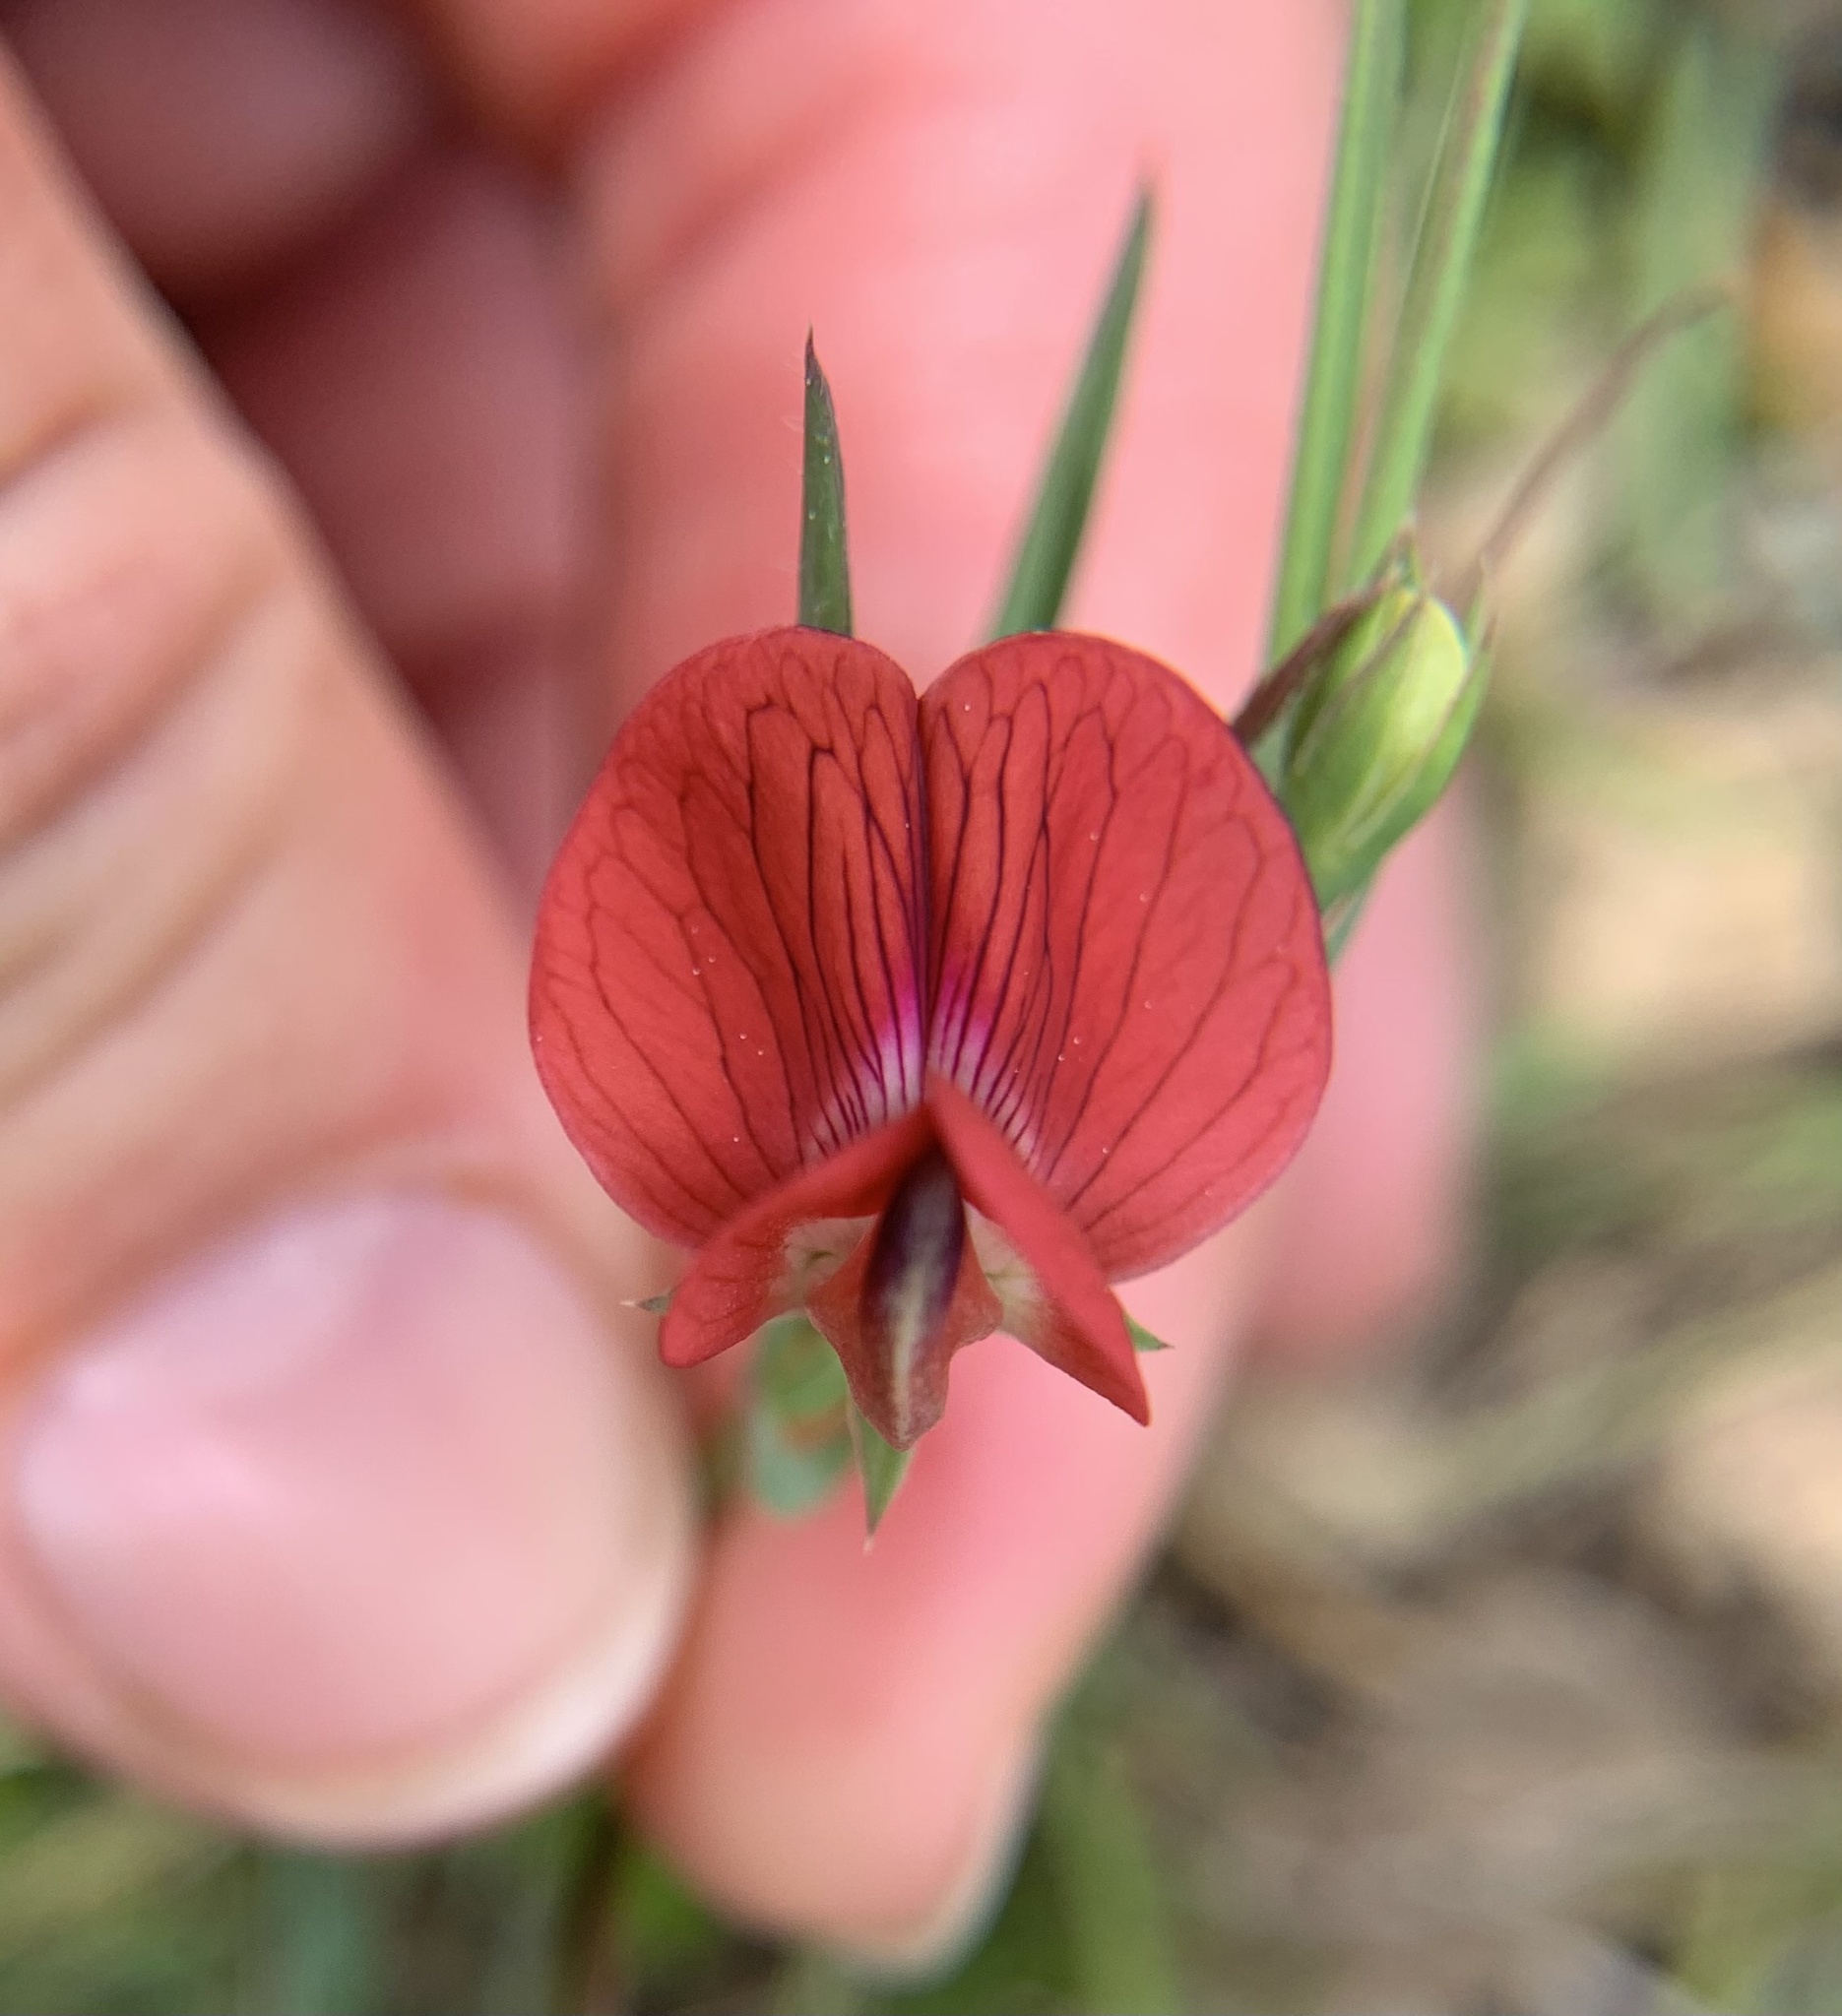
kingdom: Plantae
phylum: Tracheophyta
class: Magnoliopsida
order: Fabales
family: Fabaceae
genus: Lathyrus
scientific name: Lathyrus cicera
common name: Red vetchling
